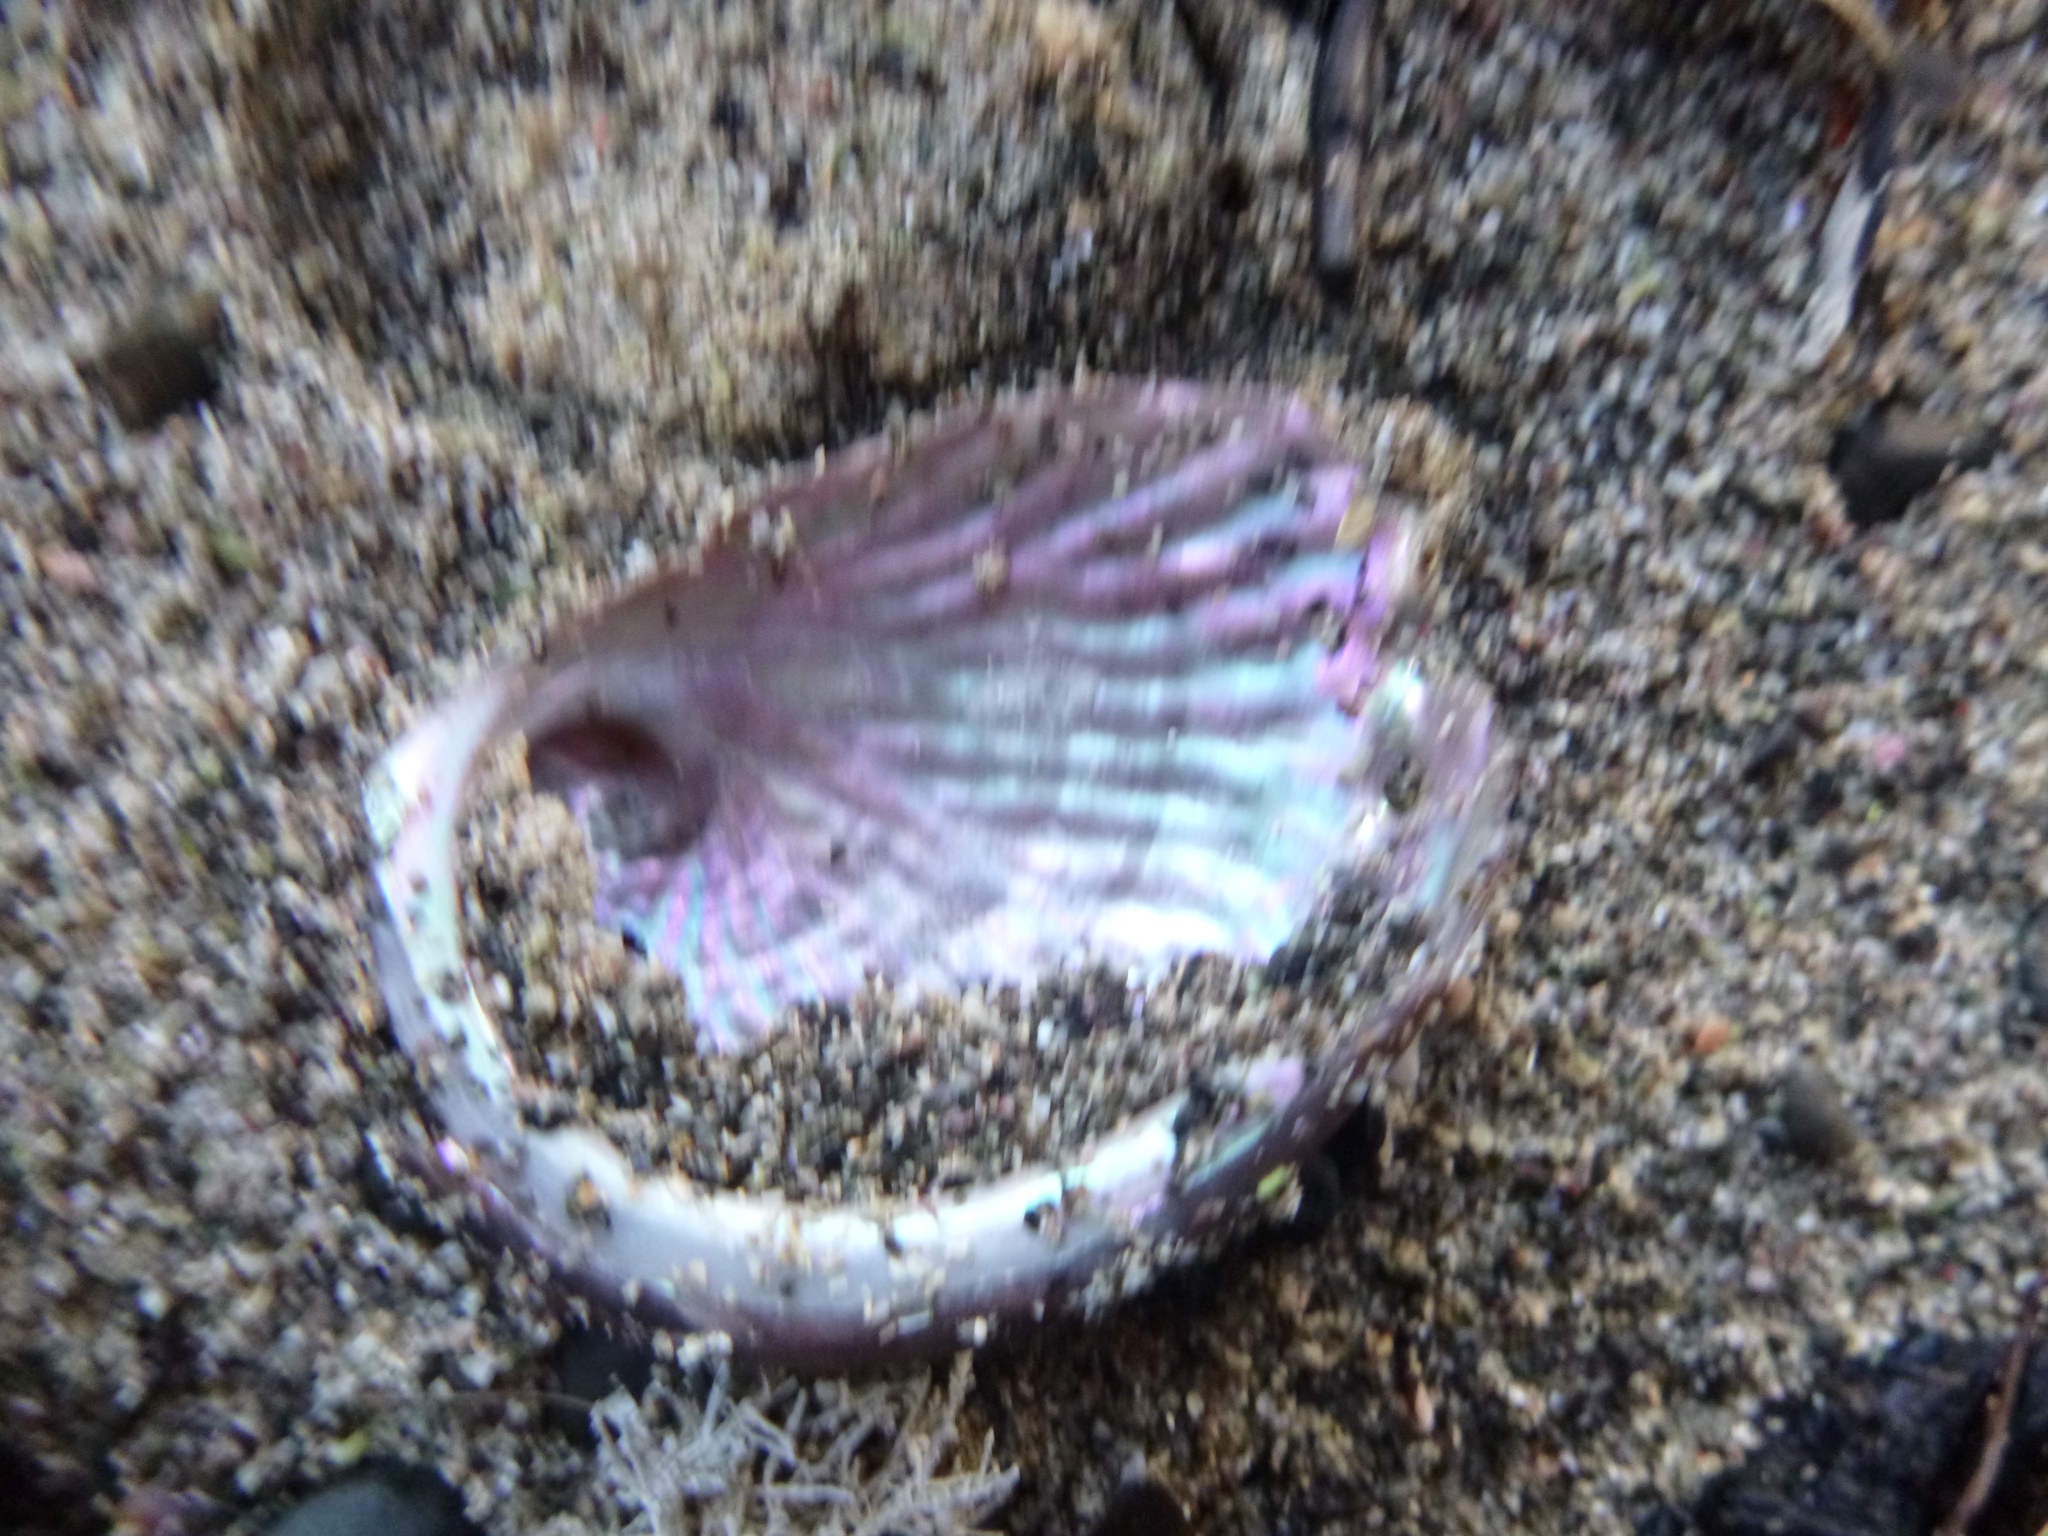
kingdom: Animalia
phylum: Mollusca
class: Gastropoda
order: Lepetellida
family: Haliotidae
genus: Haliotis
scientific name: Haliotis australis
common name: Silver abalone
